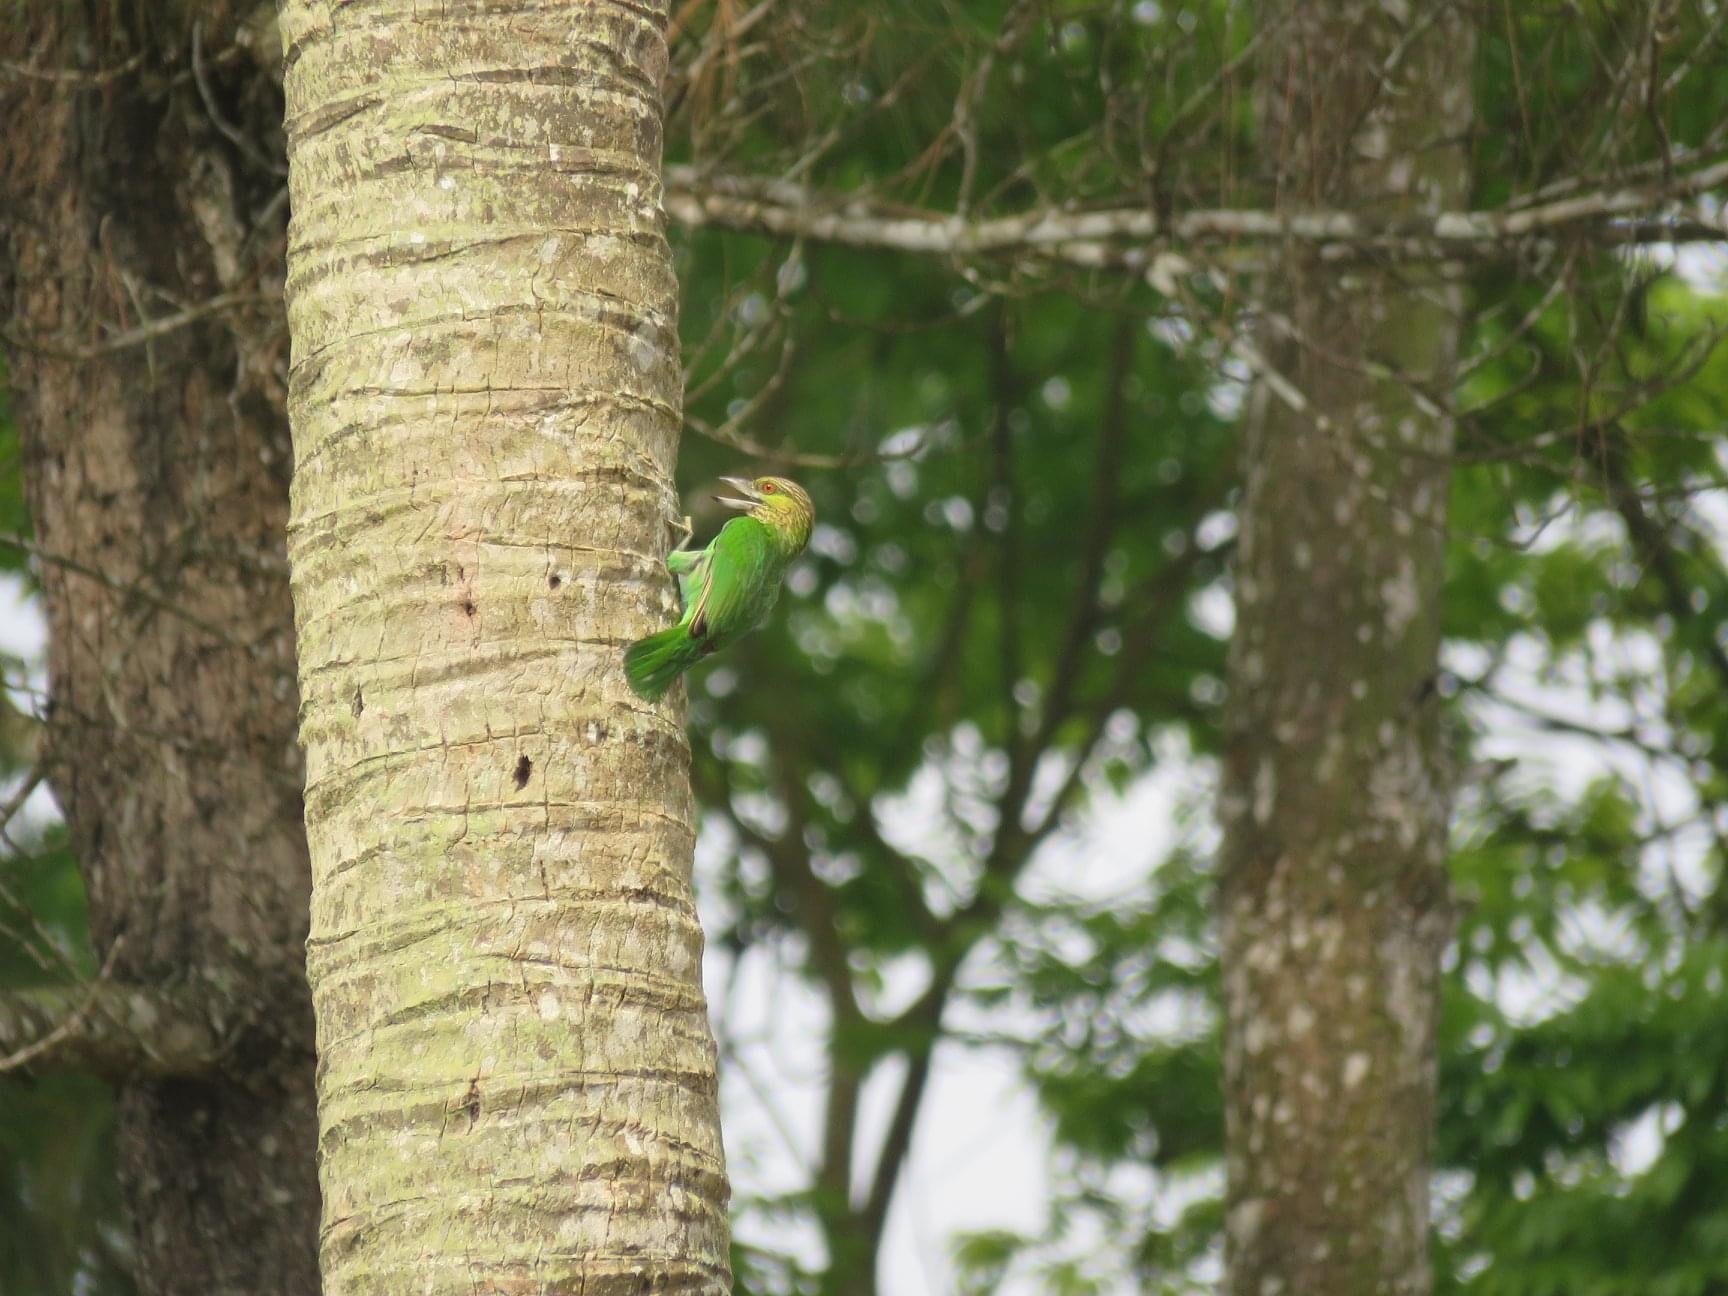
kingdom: Animalia
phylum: Chordata
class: Aves
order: Piciformes
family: Megalaimidae
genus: Psilopogon
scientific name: Psilopogon faiostrictus
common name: Green-eared barbet
